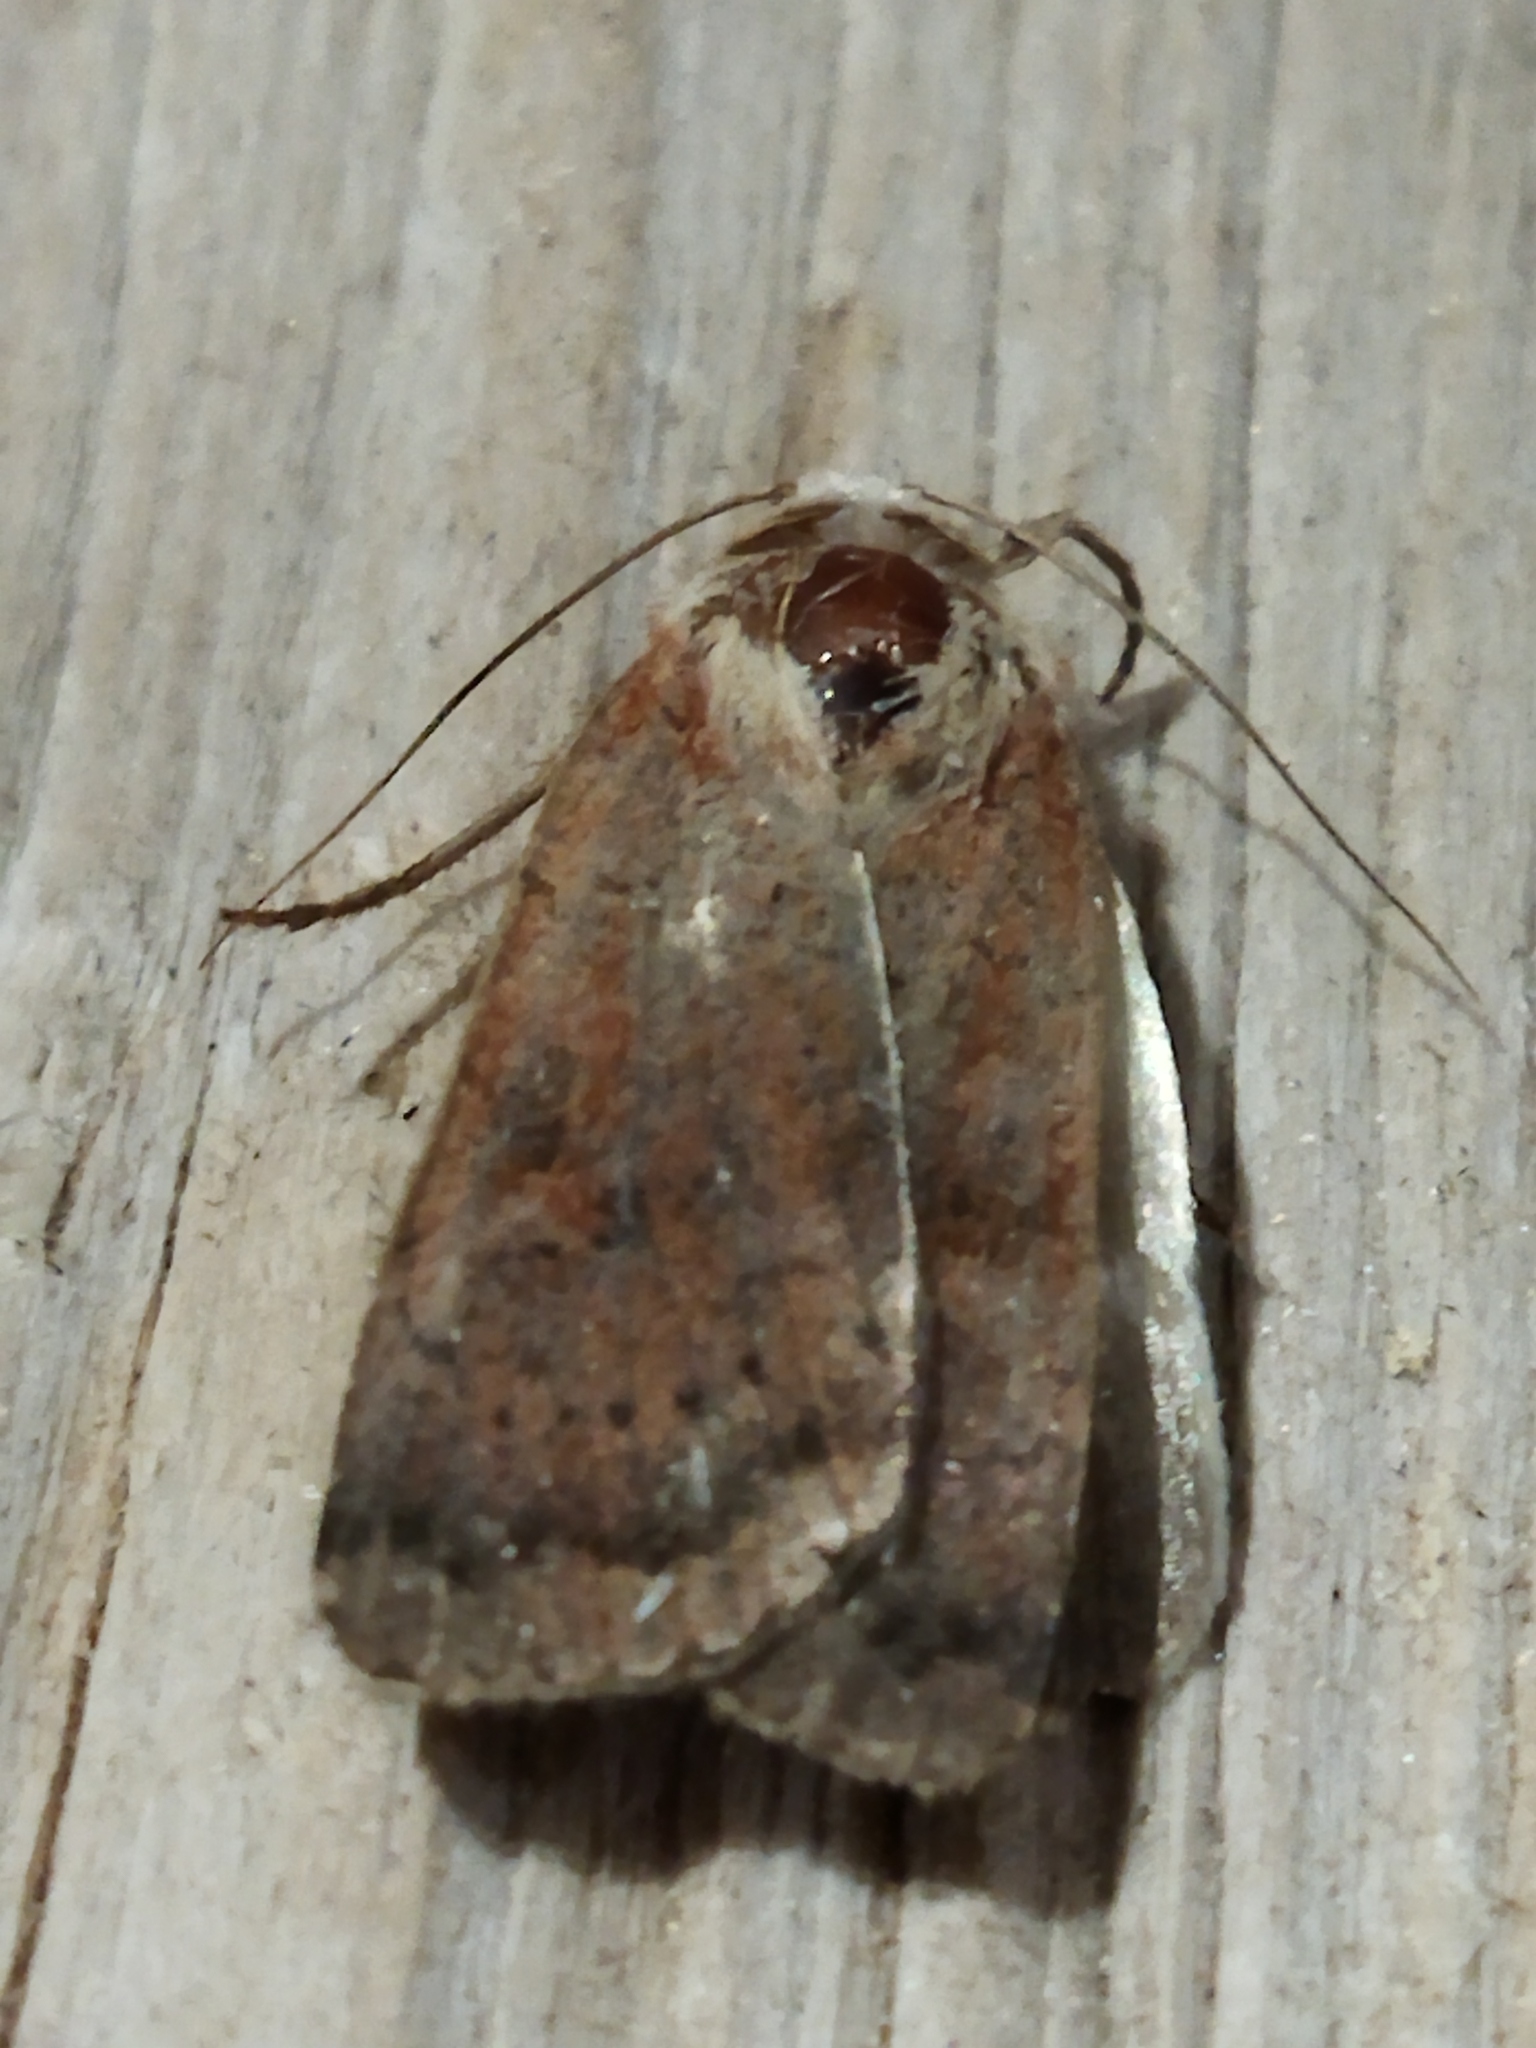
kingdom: Animalia
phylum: Arthropoda
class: Insecta
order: Lepidoptera
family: Noctuidae
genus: Xestia
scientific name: Xestia xanthographa
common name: Square-spot rustic
